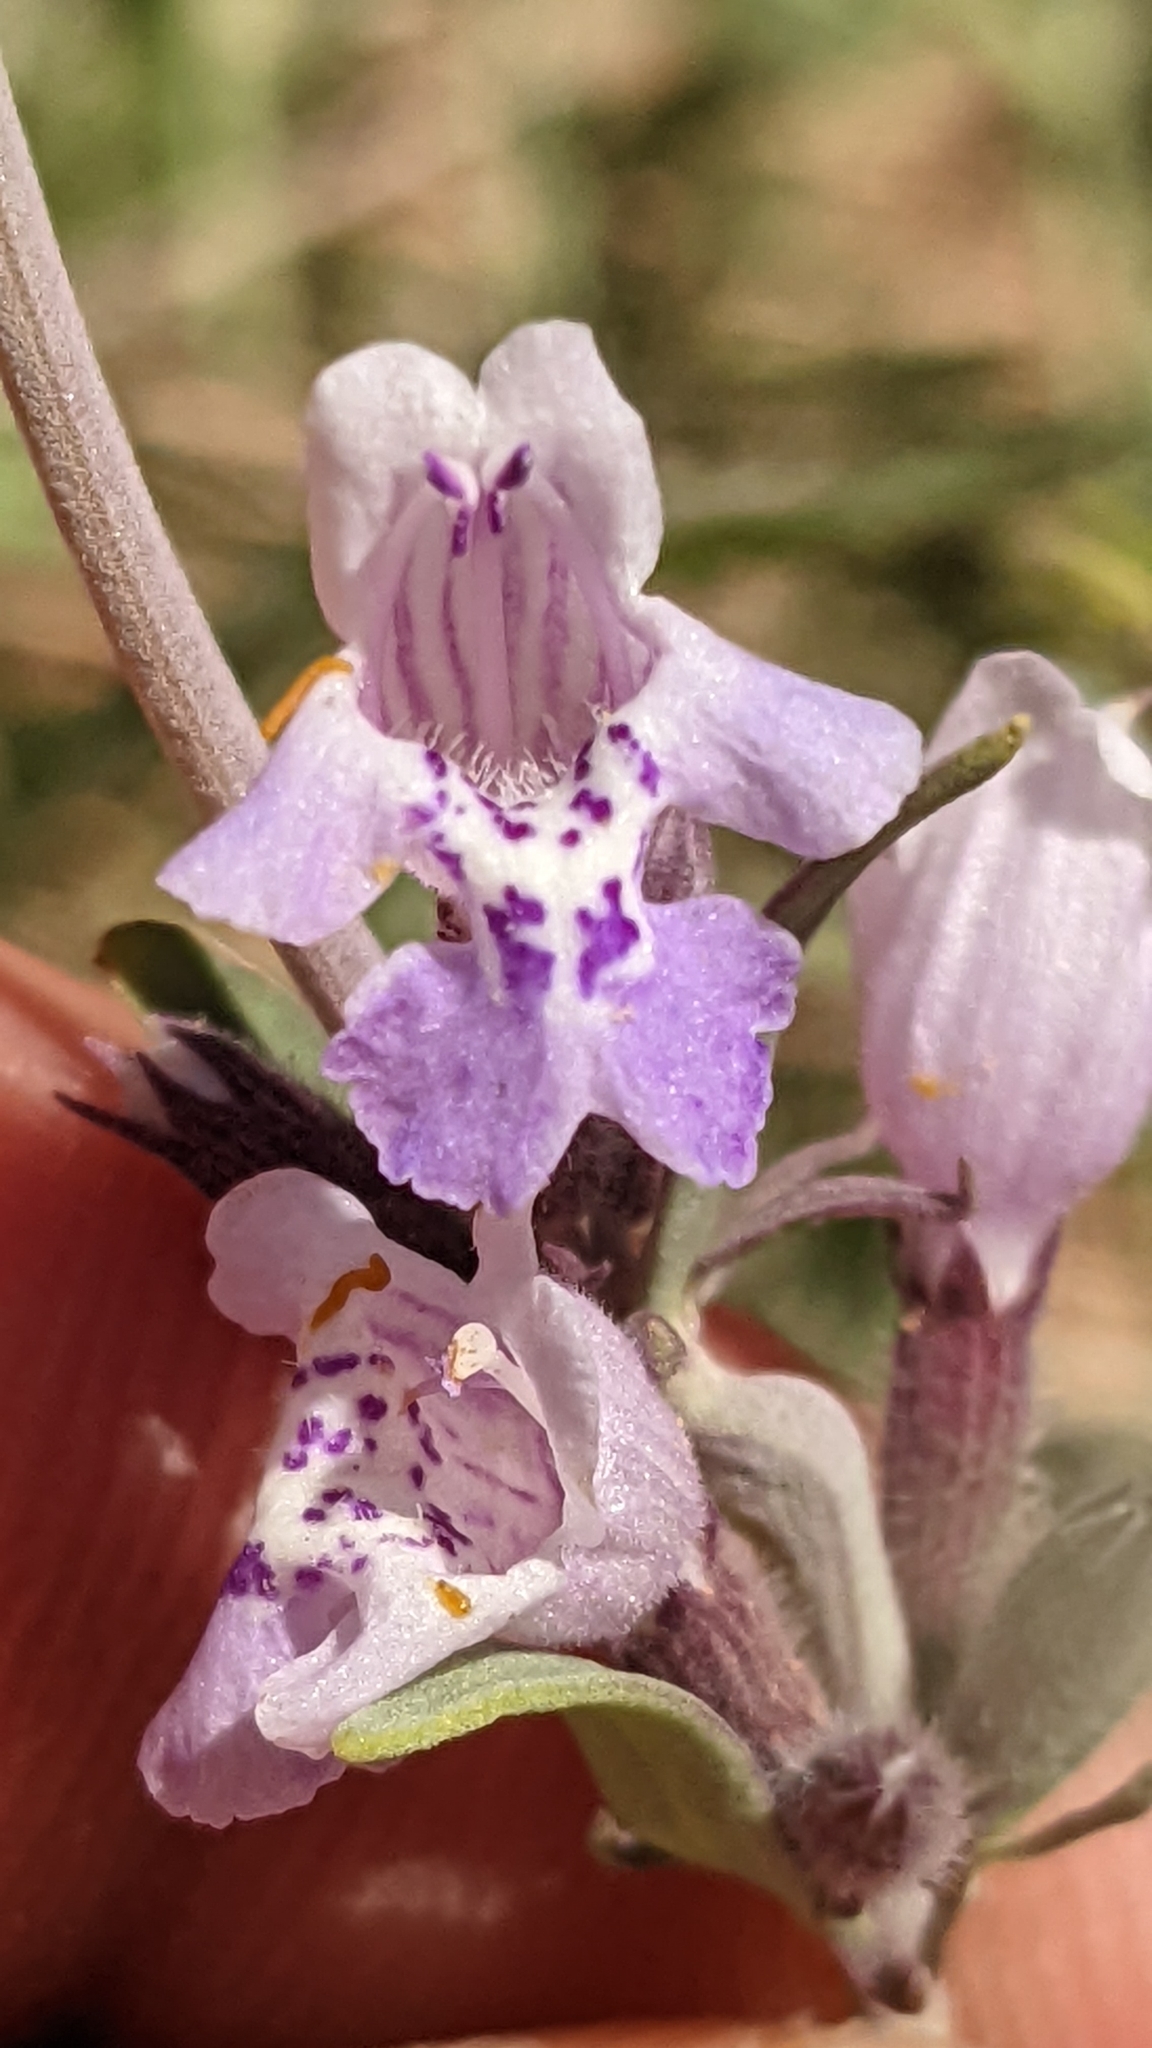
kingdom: Plantae
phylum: Tracheophyta
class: Magnoliopsida
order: Lamiales
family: Lamiaceae
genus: Poliomintha
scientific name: Poliomintha incana
